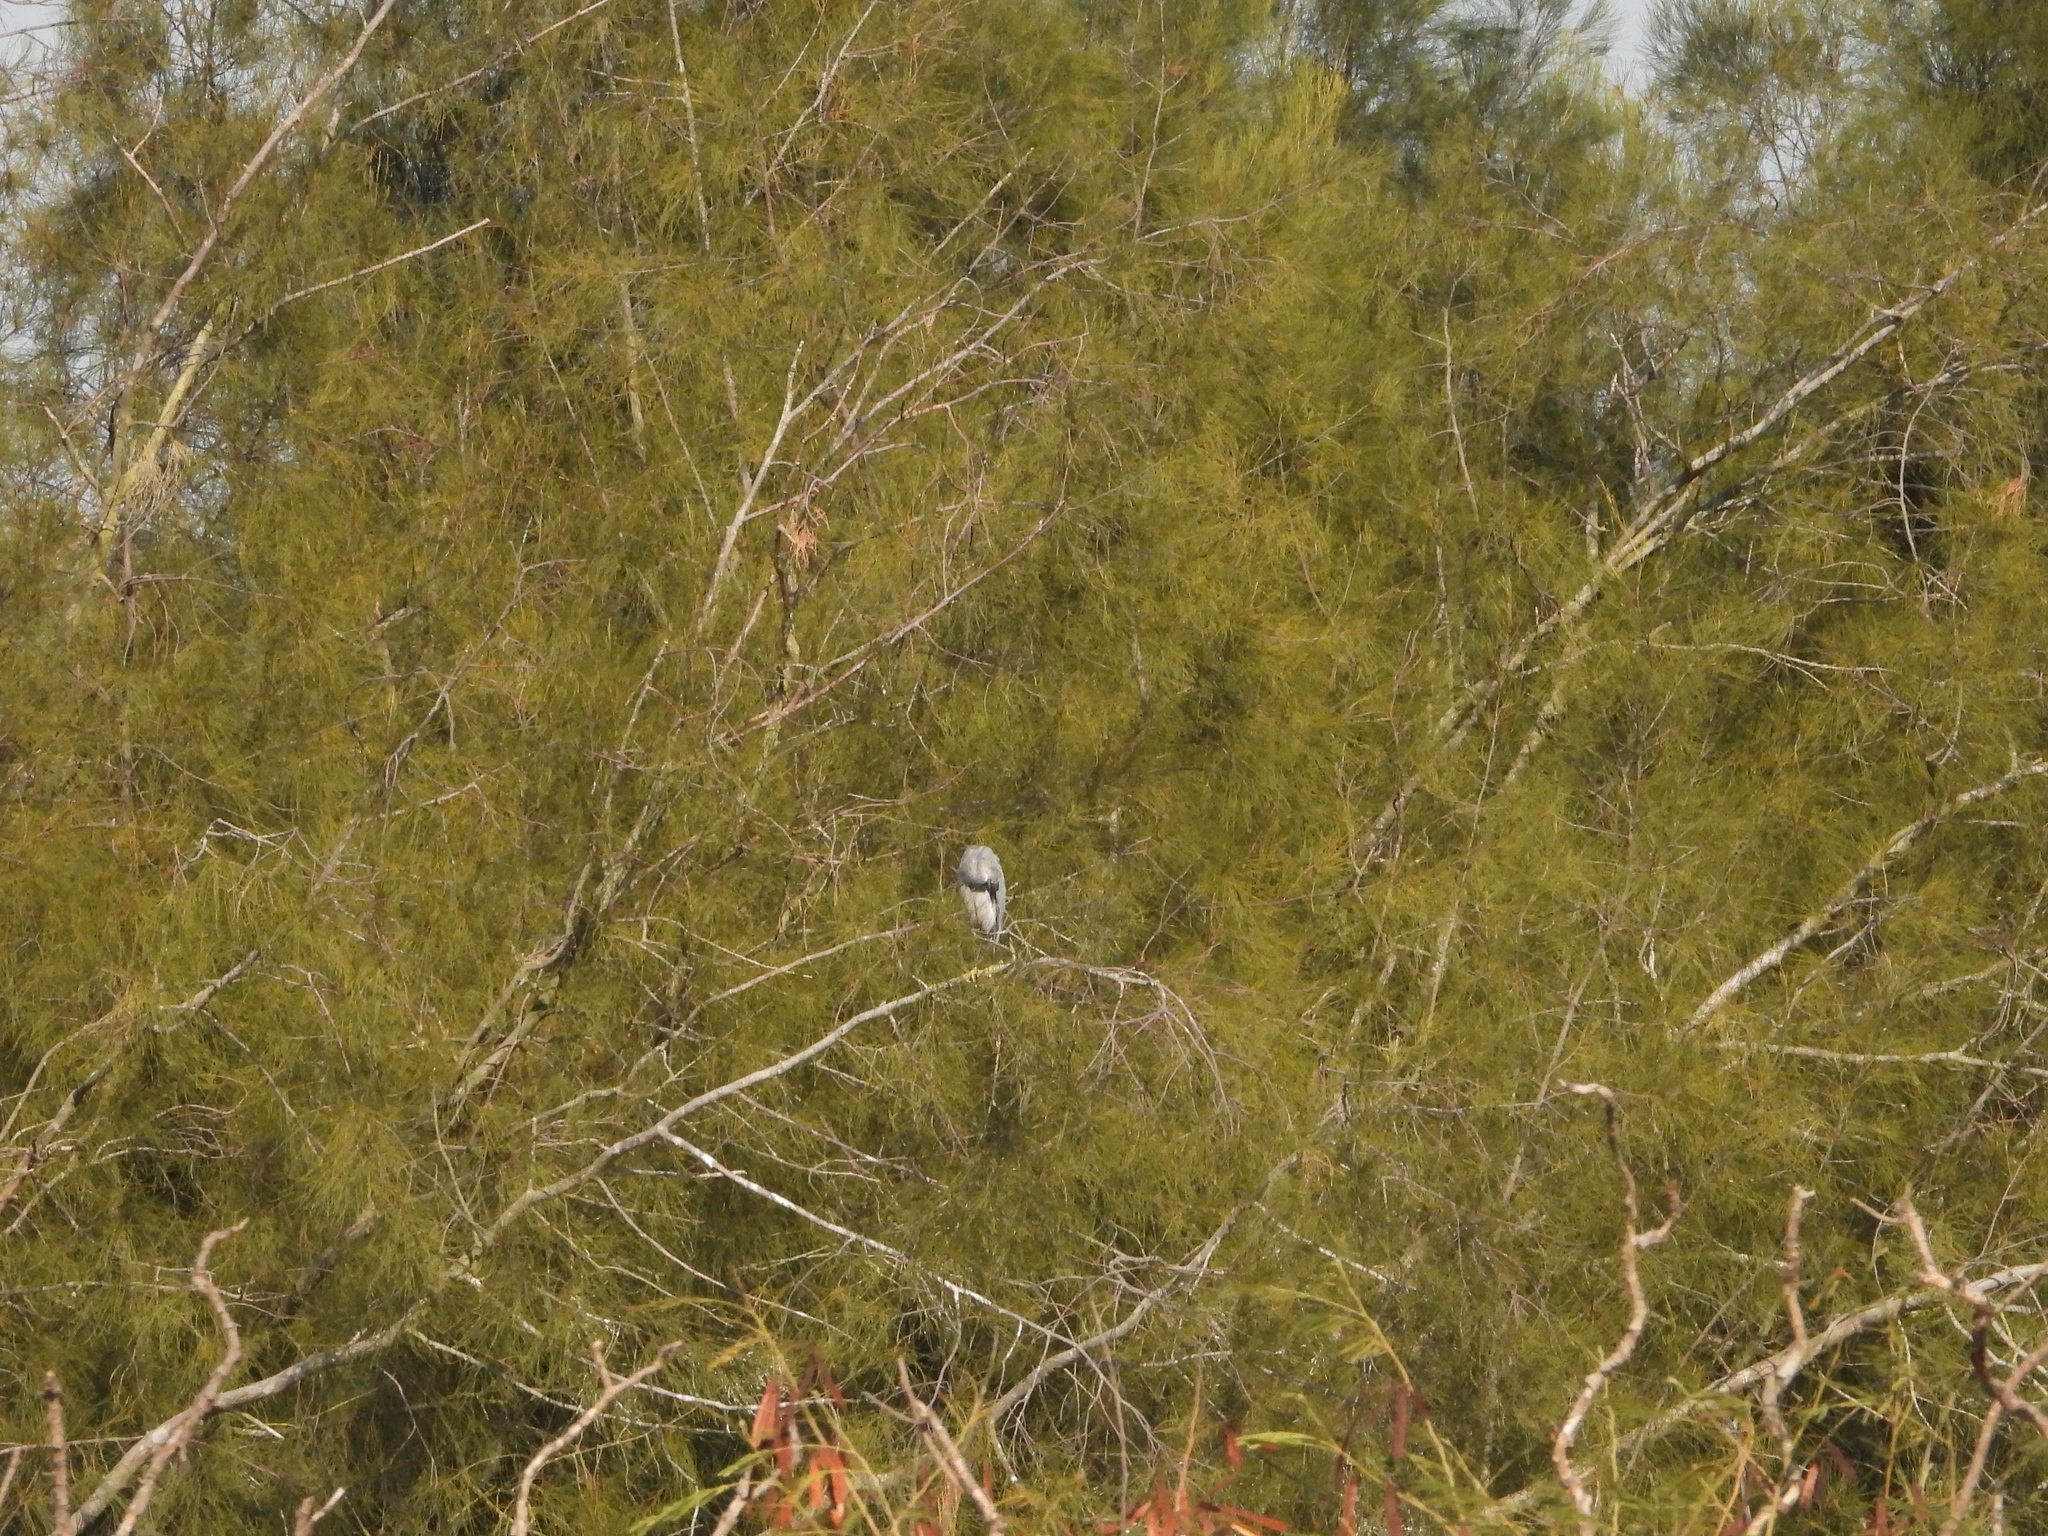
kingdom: Animalia
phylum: Chordata
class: Aves
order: Pelecaniformes
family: Ardeidae
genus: Egretta
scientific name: Egretta garzetta
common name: Little egret
